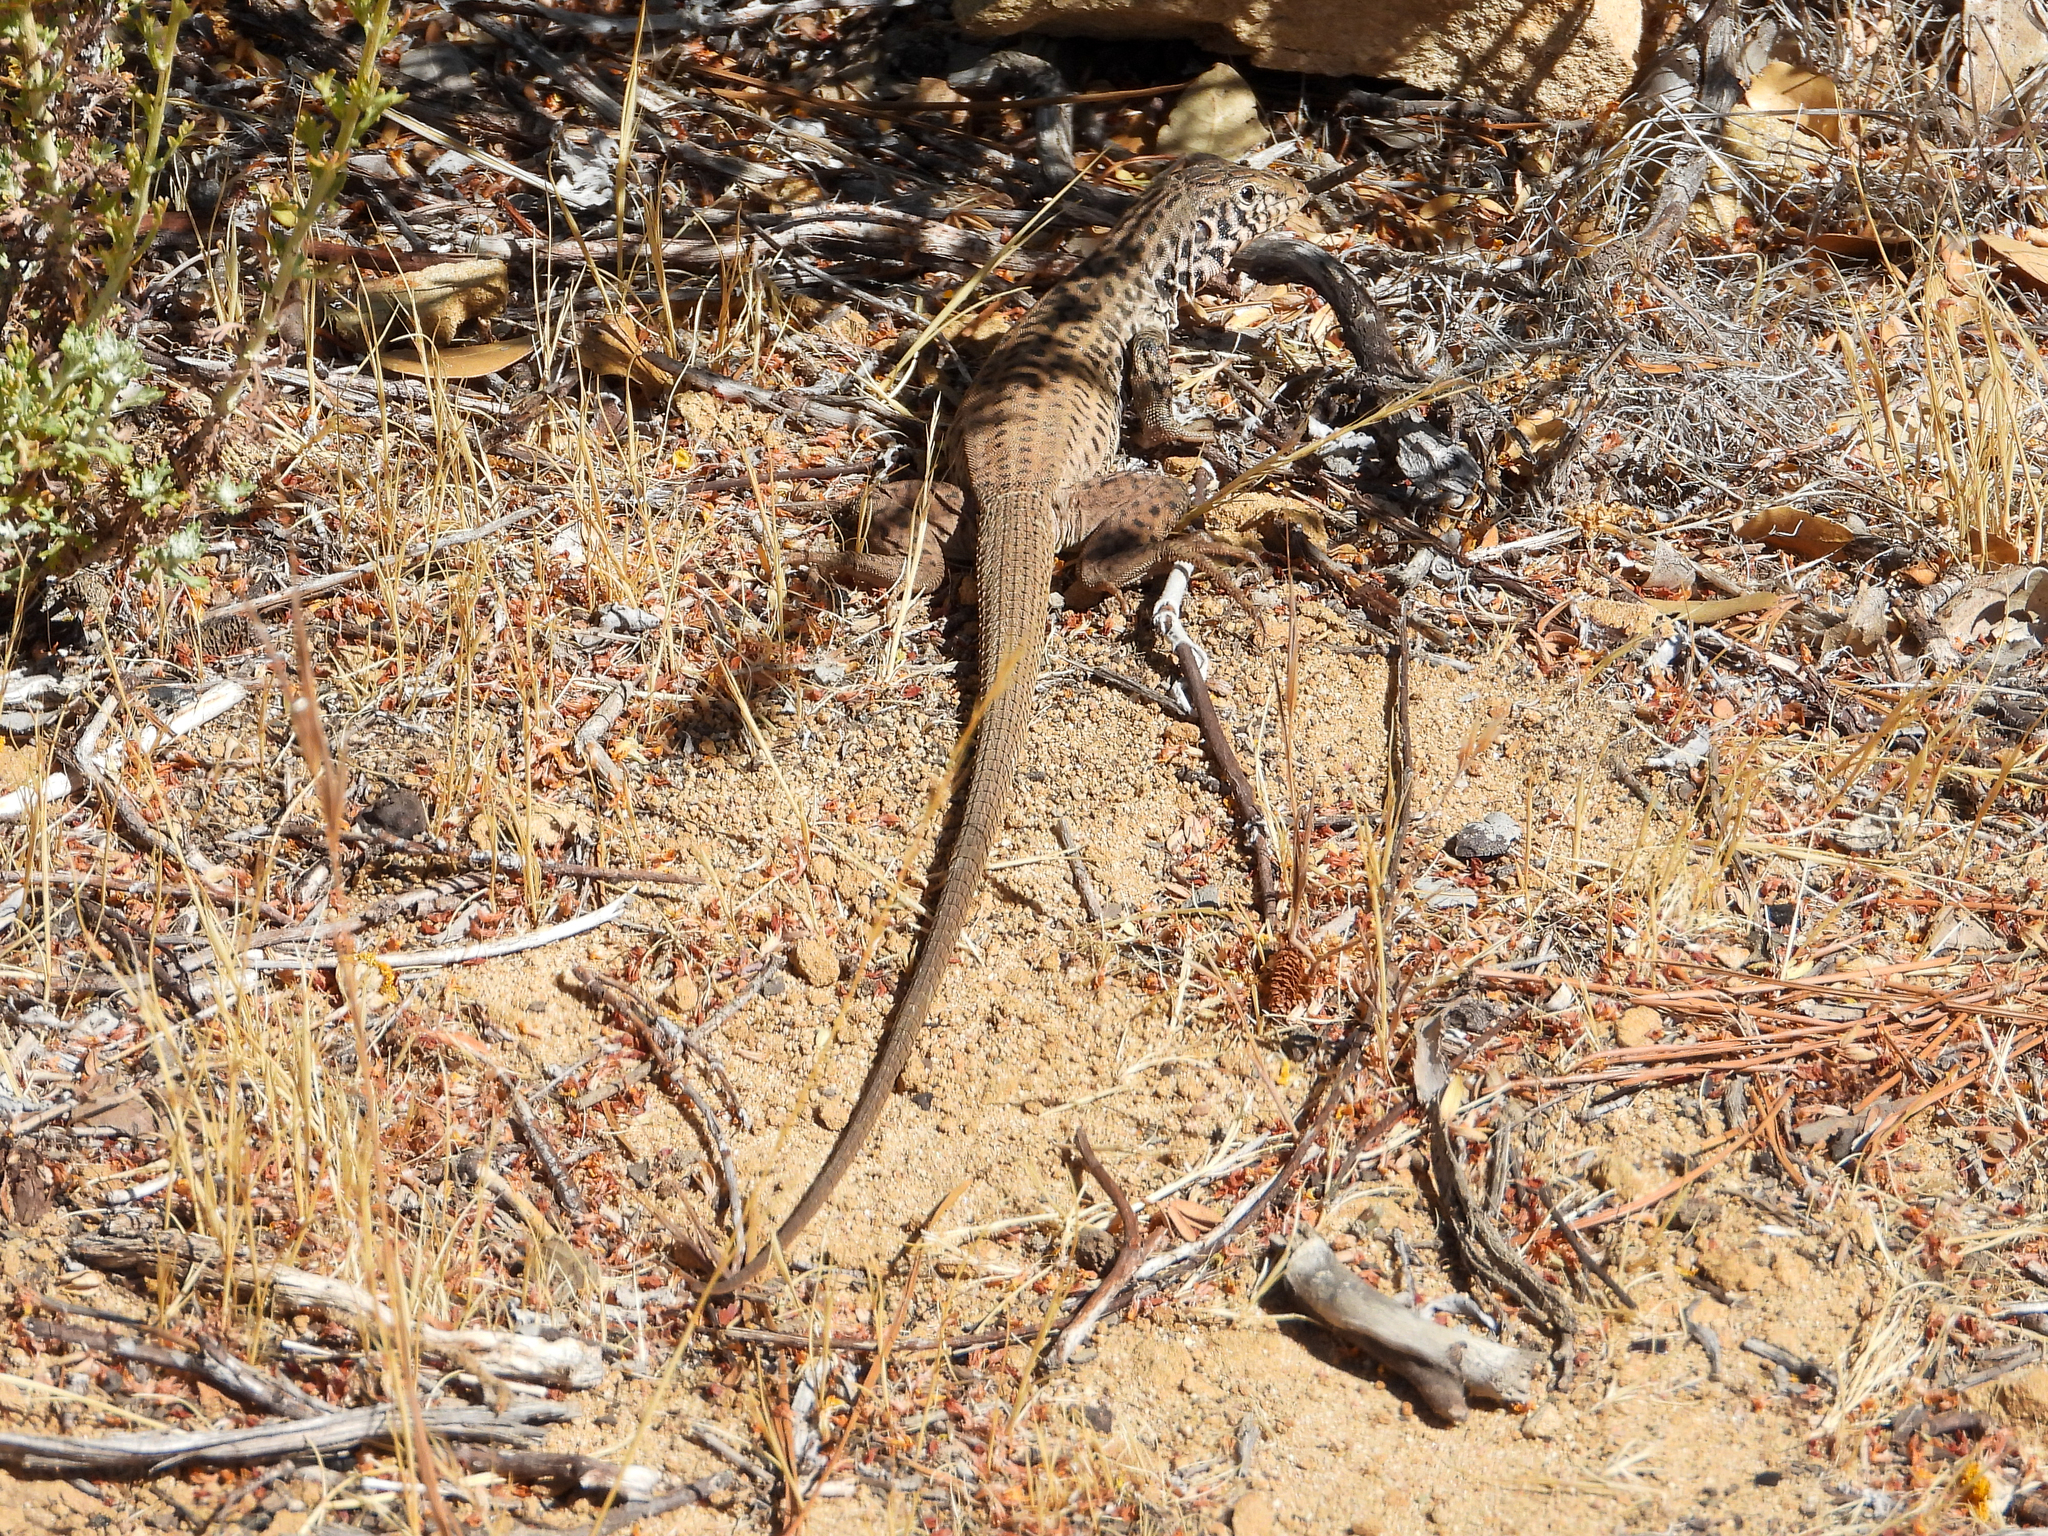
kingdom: Animalia
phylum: Chordata
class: Squamata
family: Teiidae
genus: Aspidoscelis
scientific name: Aspidoscelis tigris
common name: Tiger whiptail
